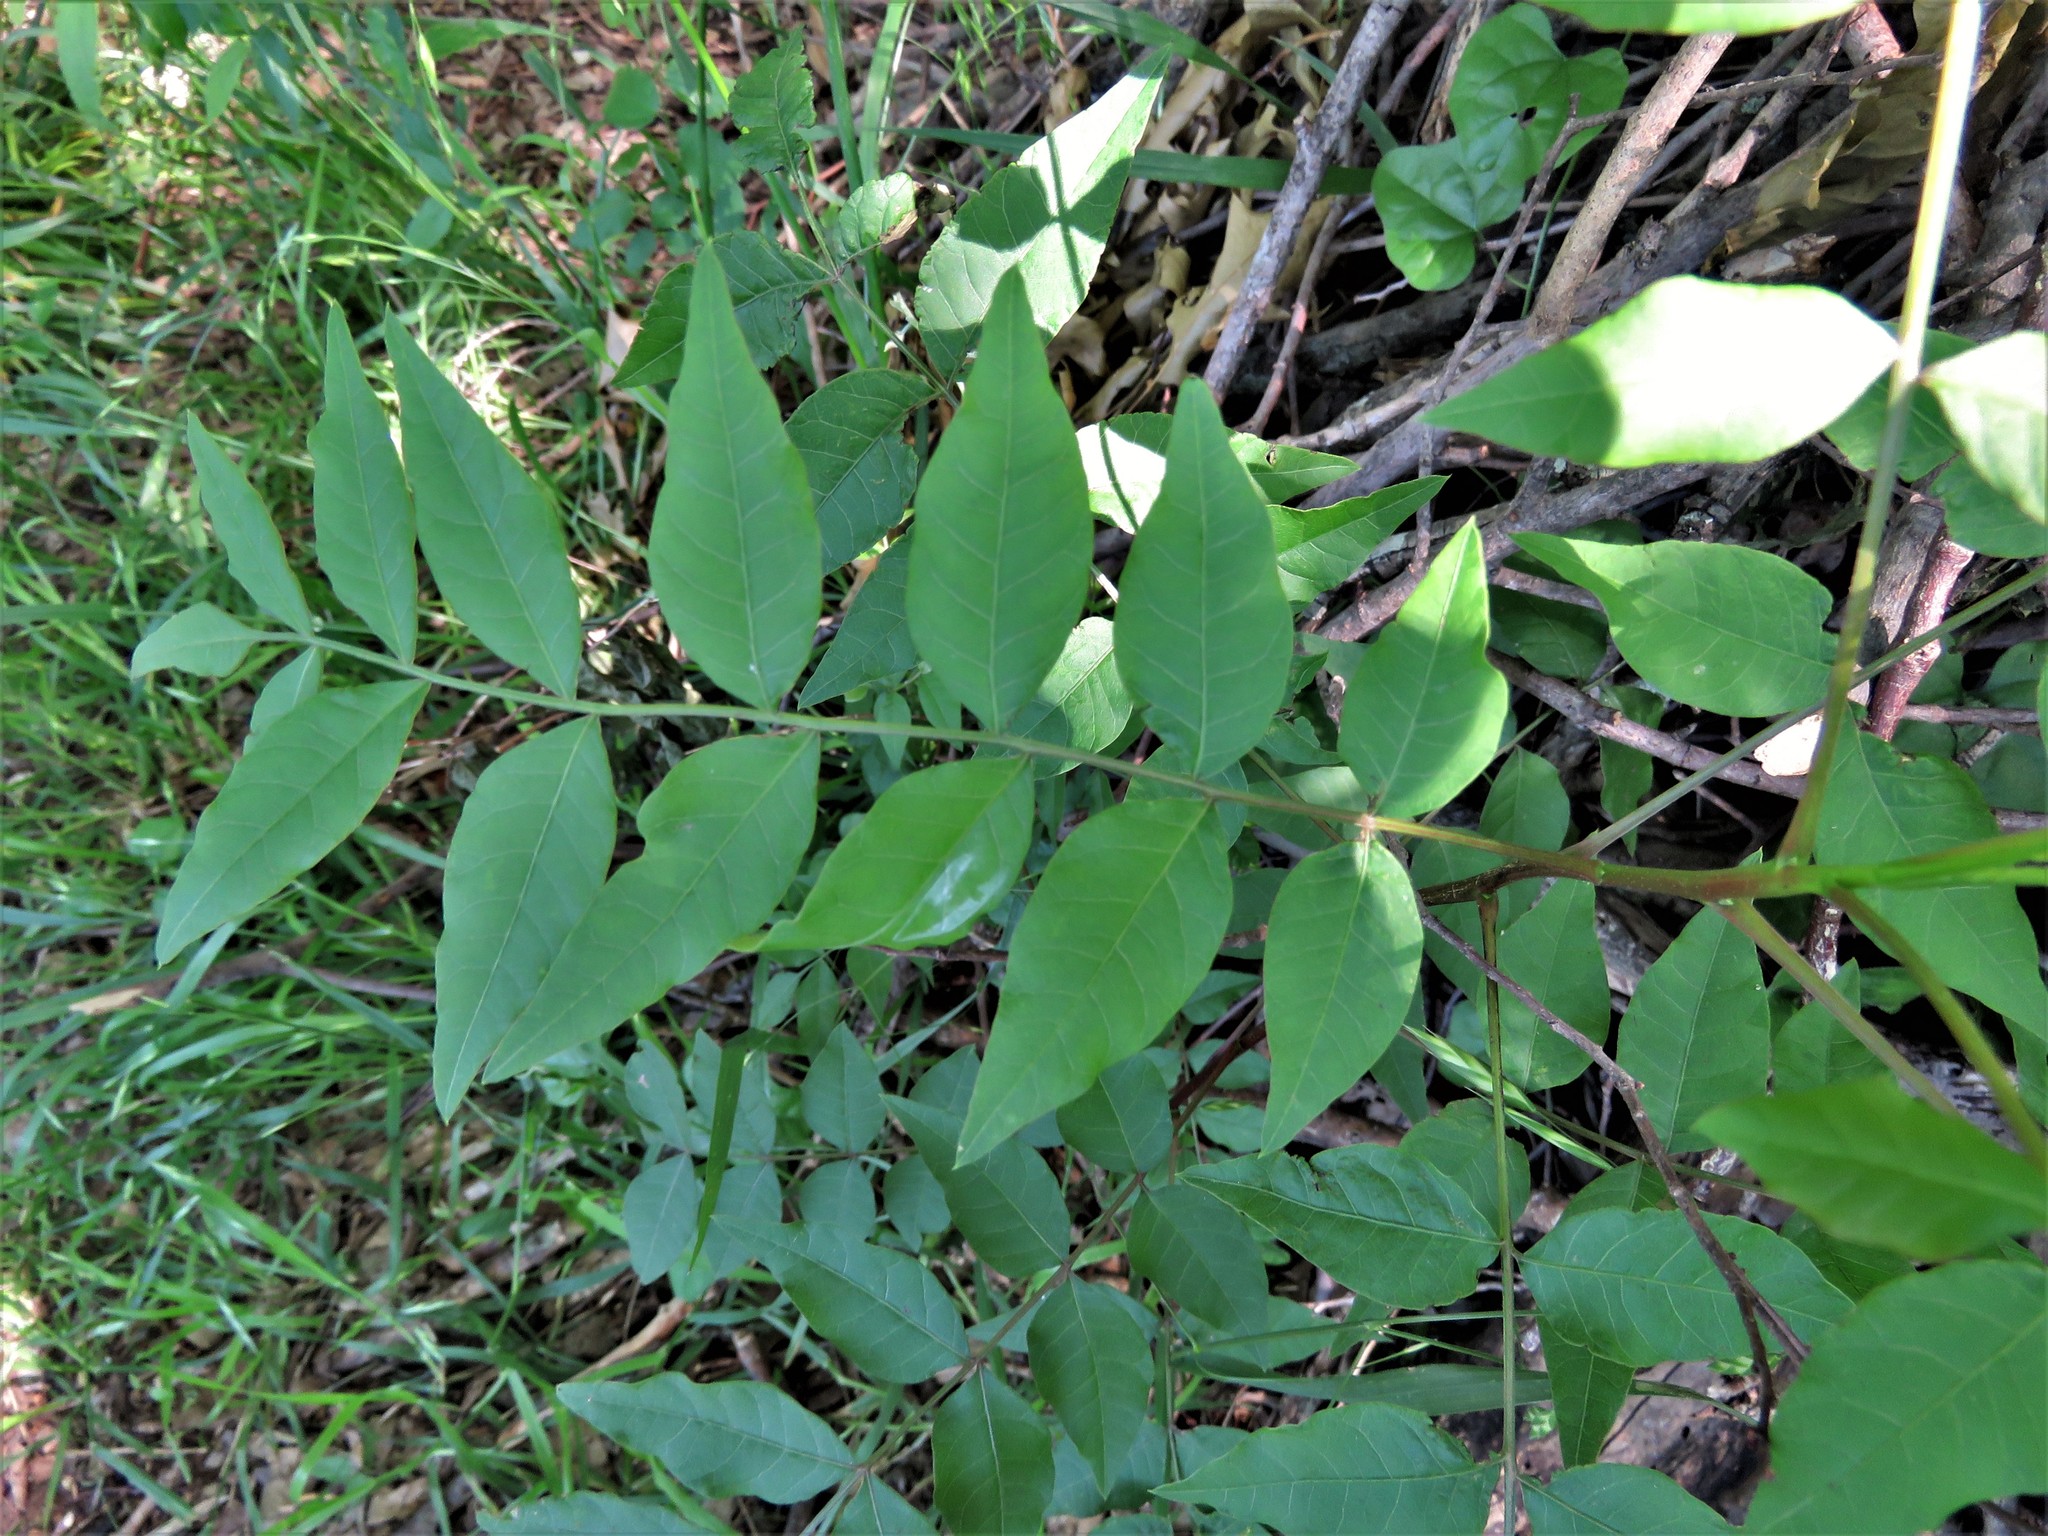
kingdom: Plantae
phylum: Tracheophyta
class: Magnoliopsida
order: Sapindales
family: Sapindaceae
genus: Sapindus
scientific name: Sapindus drummondii
